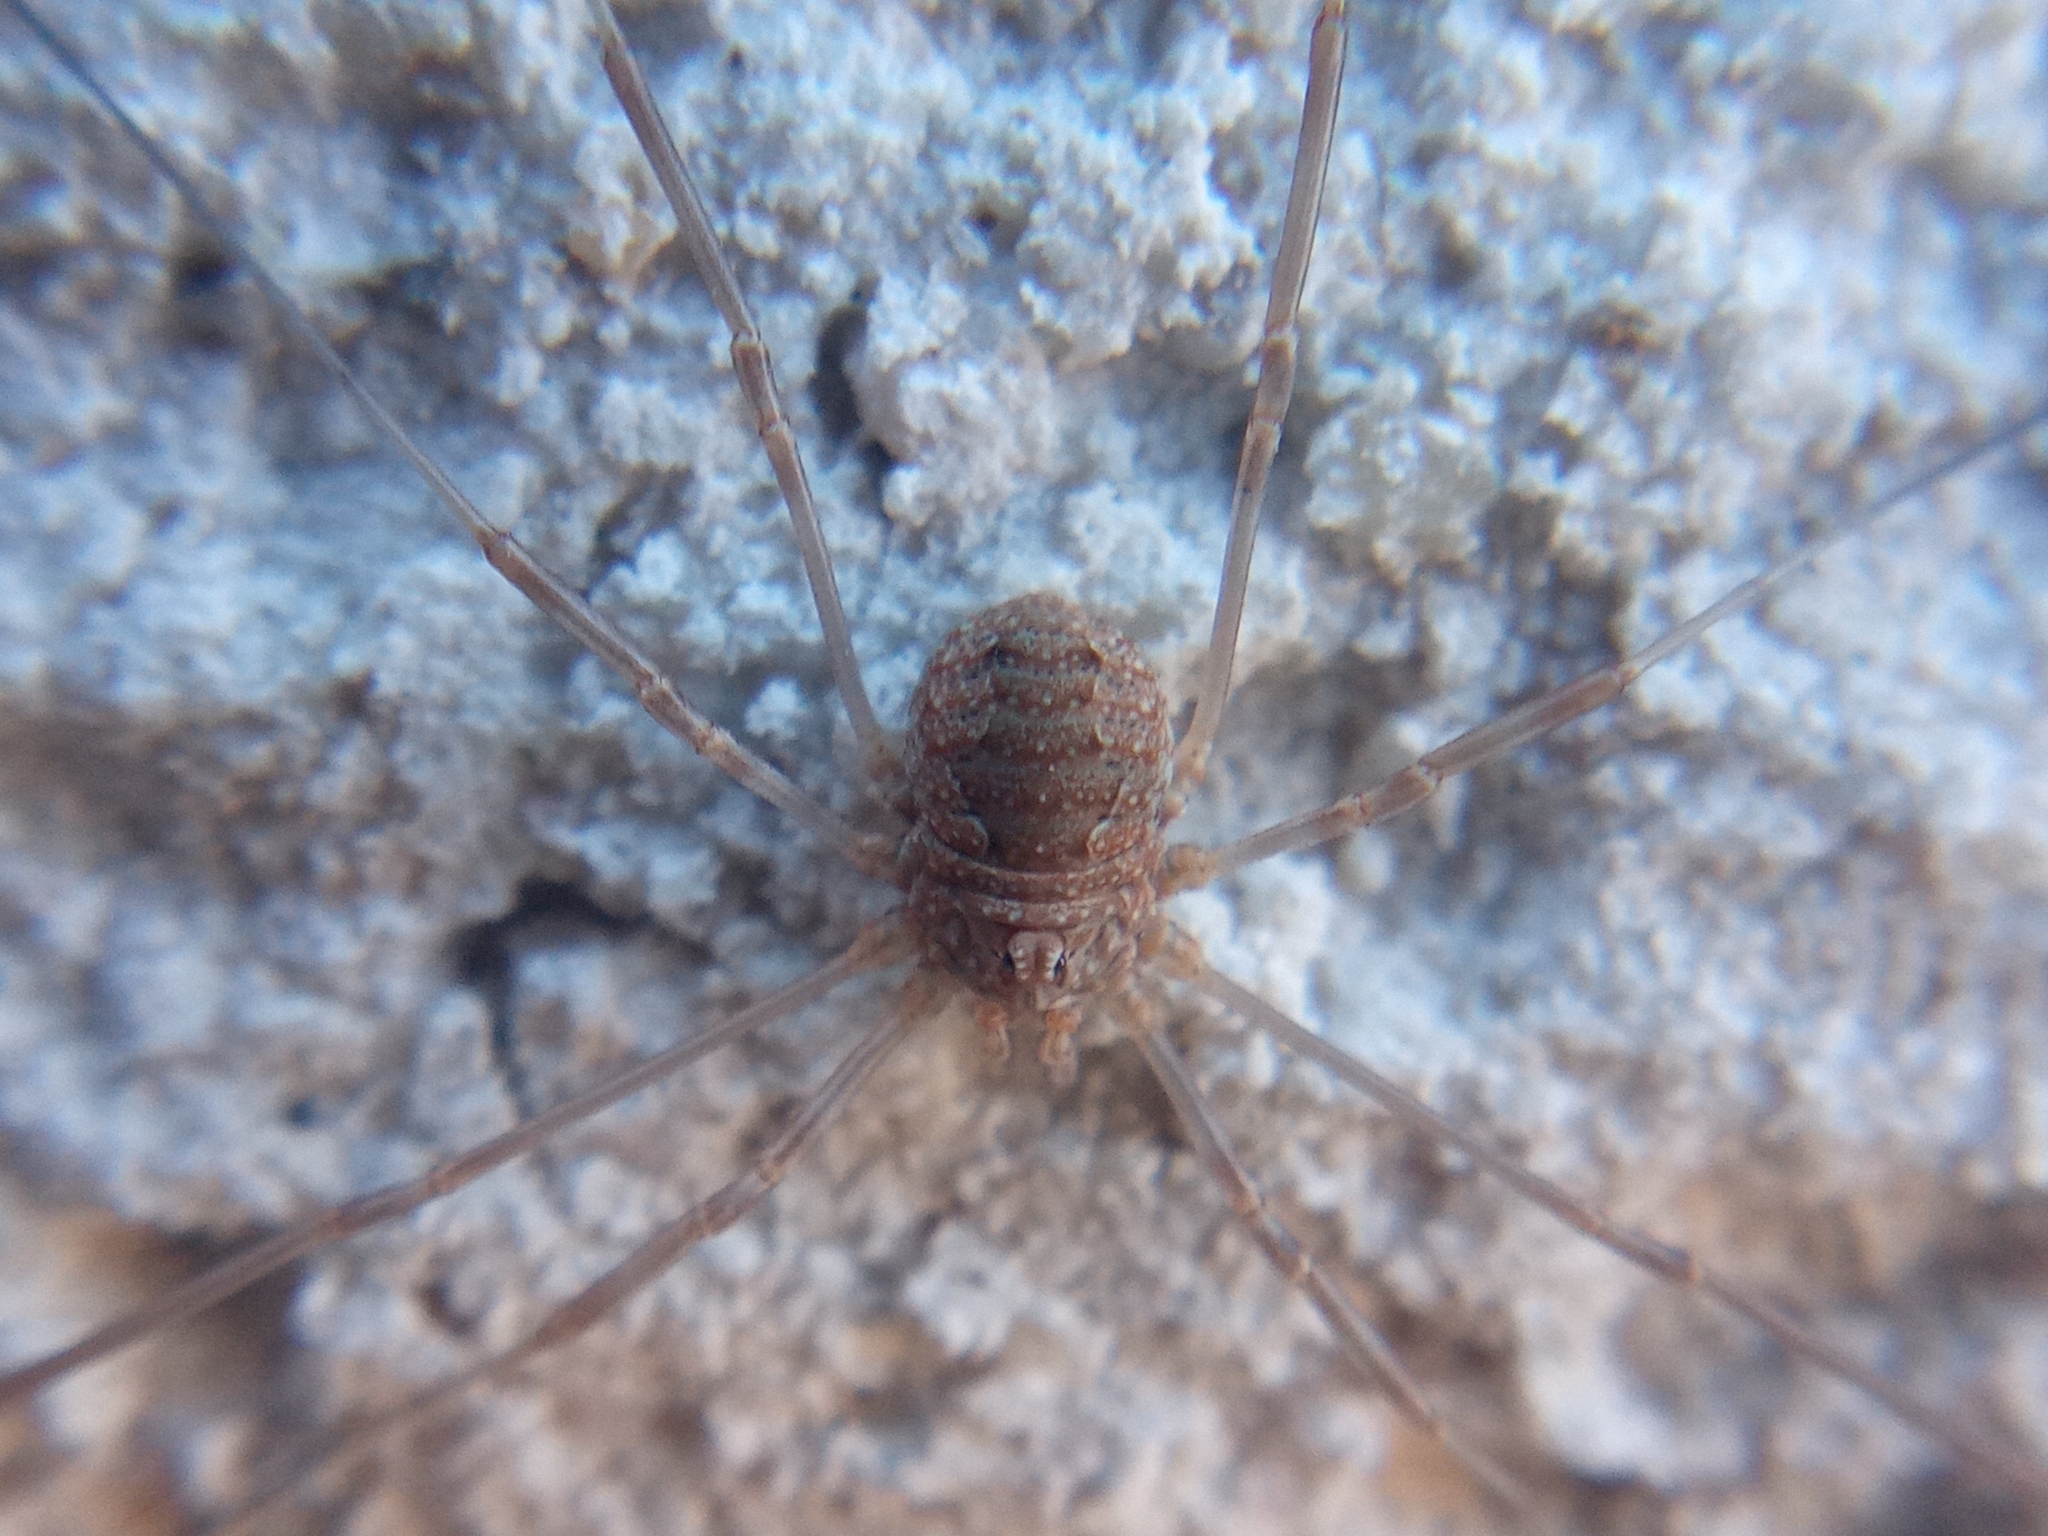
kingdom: Animalia
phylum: Arthropoda
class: Arachnida
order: Opiliones
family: Phalangiidae
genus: Phalangium
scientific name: Phalangium opilio
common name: Daddy longleg
